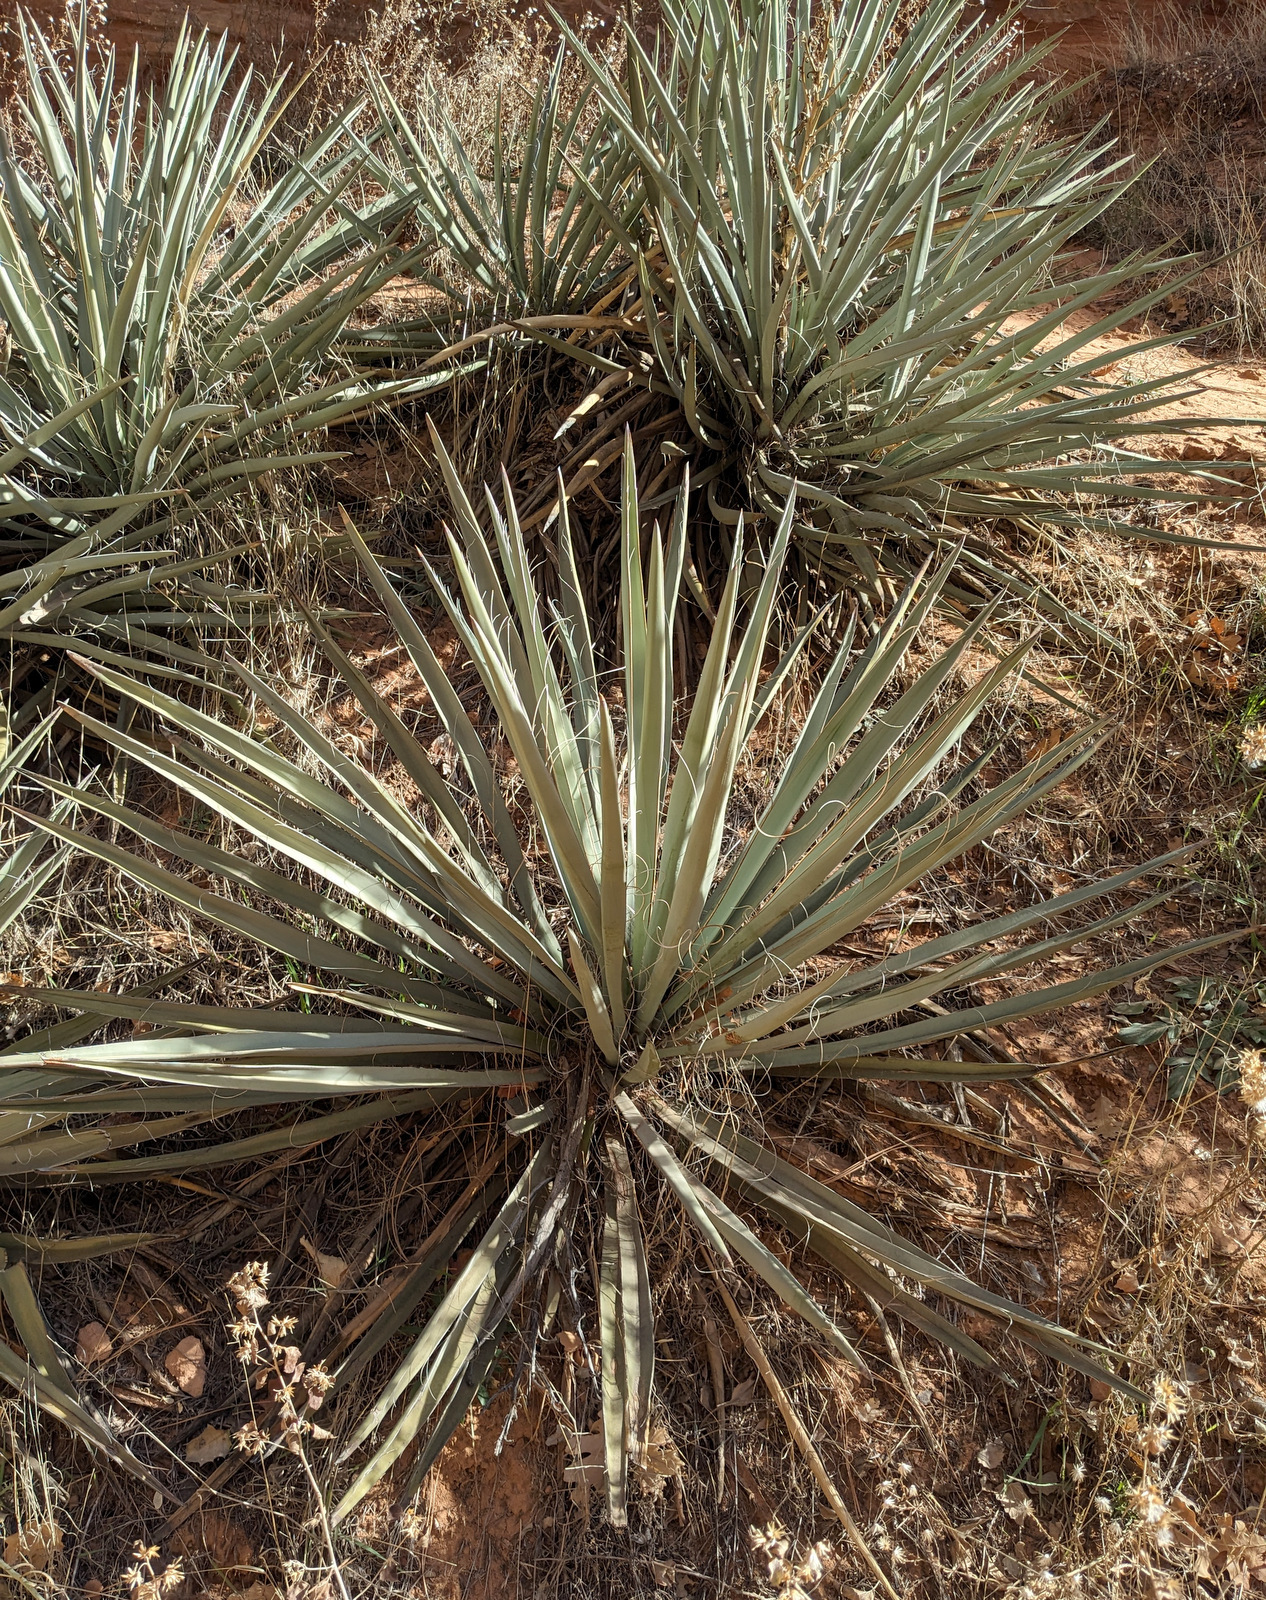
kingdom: Plantae
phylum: Tracheophyta
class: Liliopsida
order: Asparagales
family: Asparagaceae
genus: Yucca
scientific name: Yucca baccata
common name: Banana yucca
